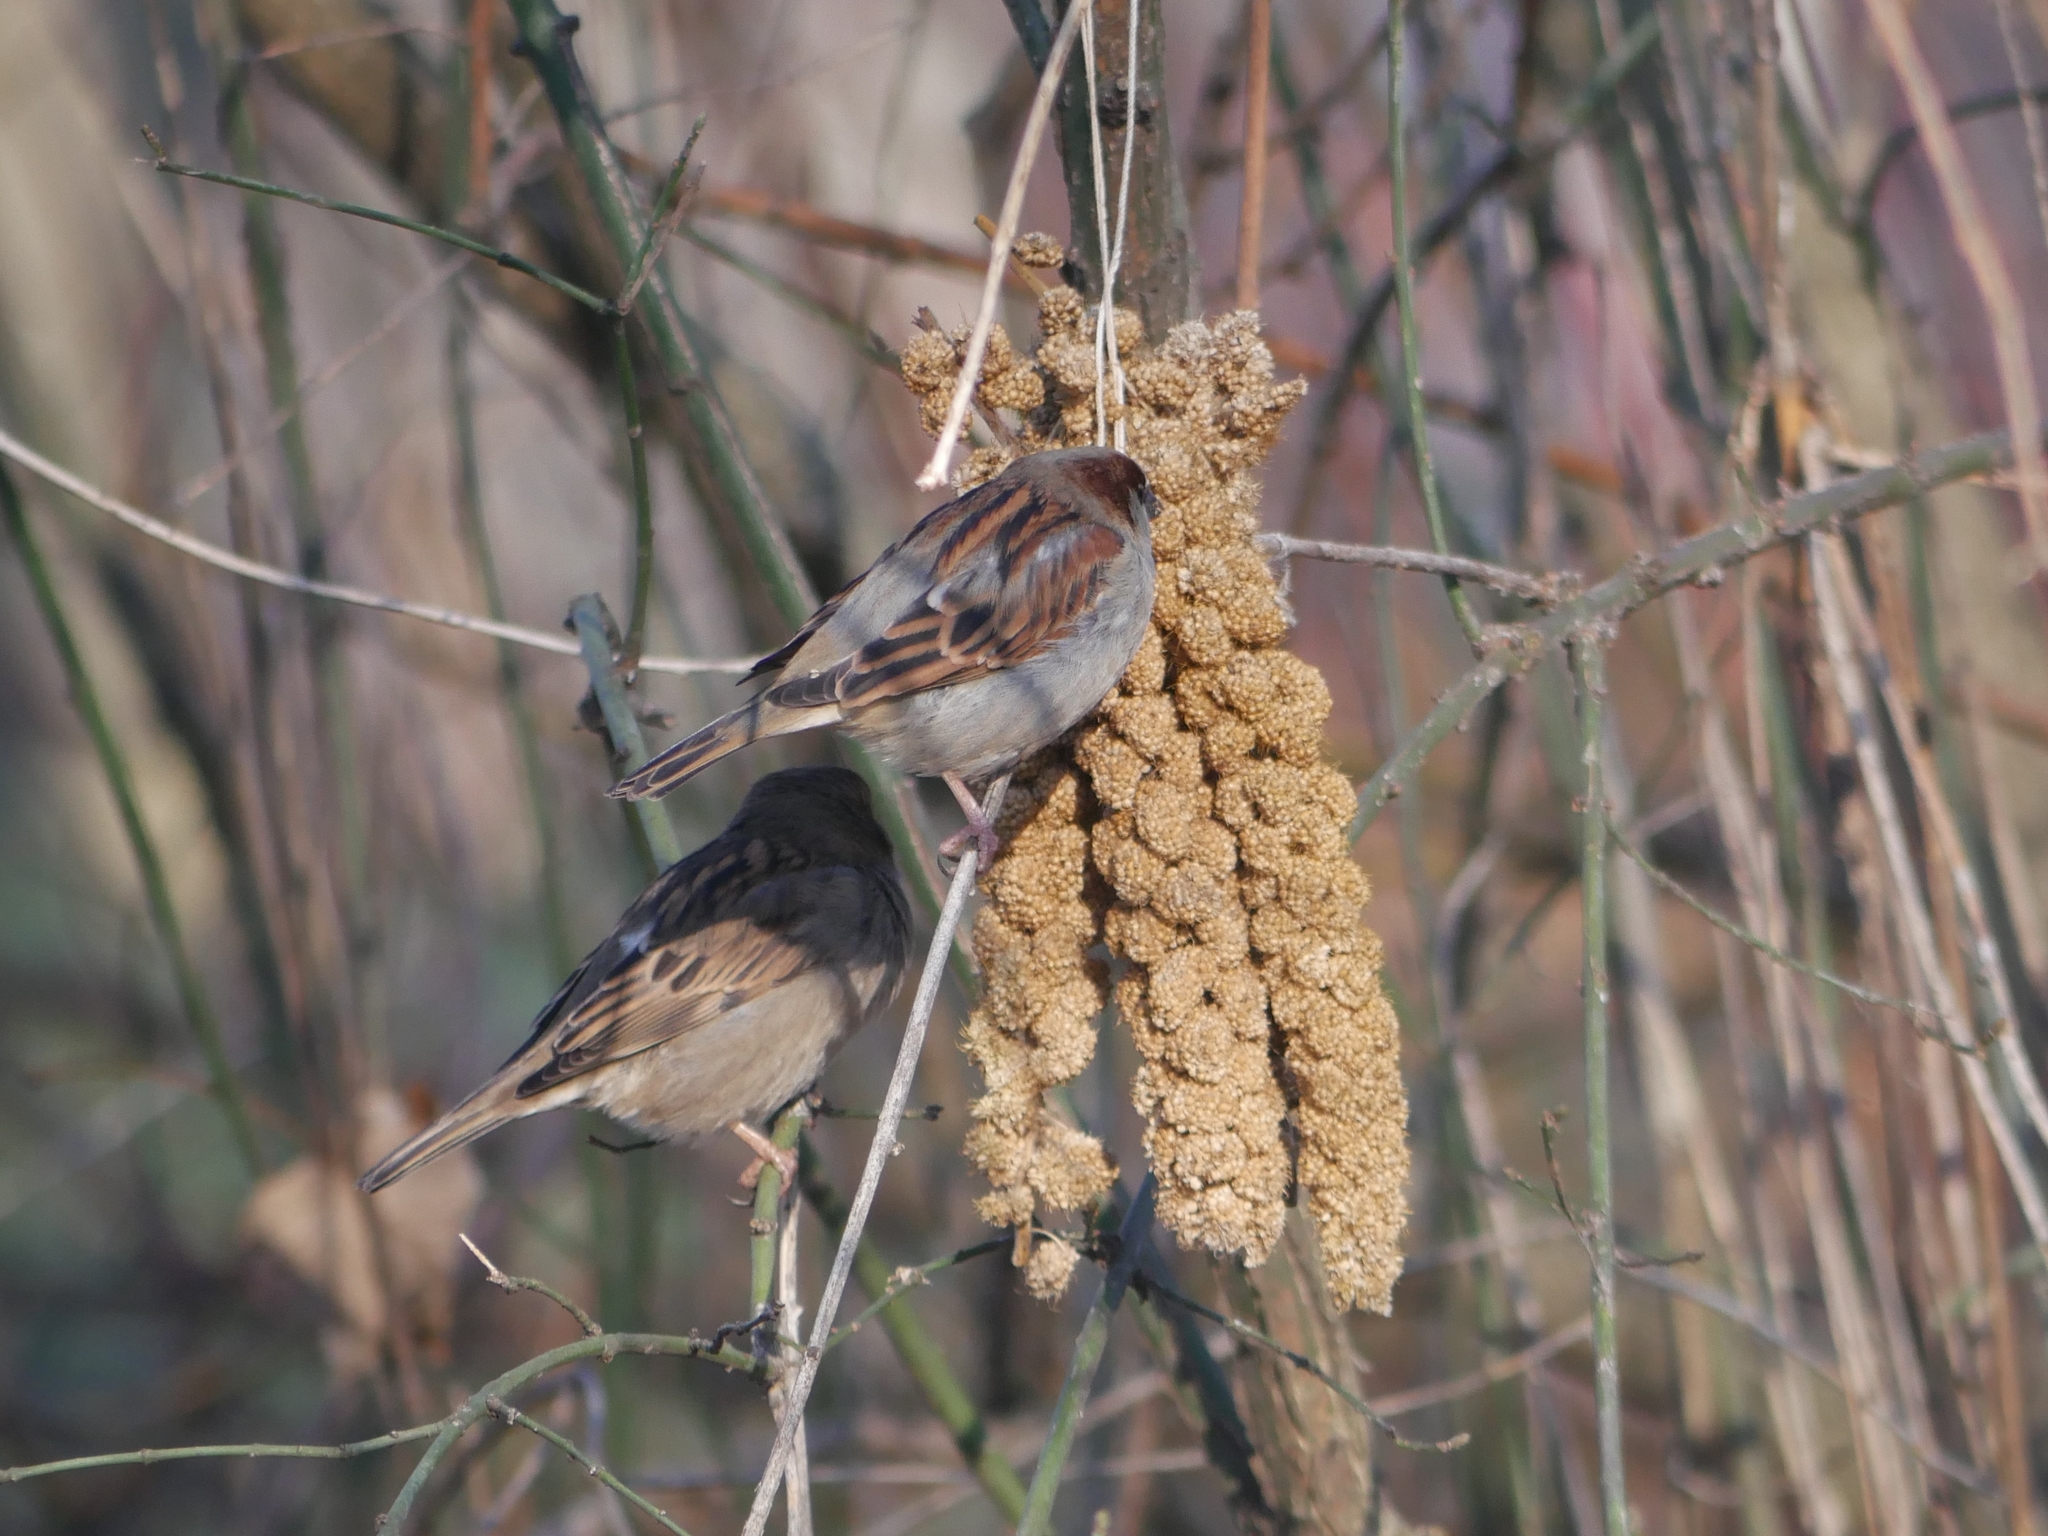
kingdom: Animalia
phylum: Chordata
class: Aves
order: Passeriformes
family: Passeridae
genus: Passer
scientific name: Passer domesticus
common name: House sparrow
